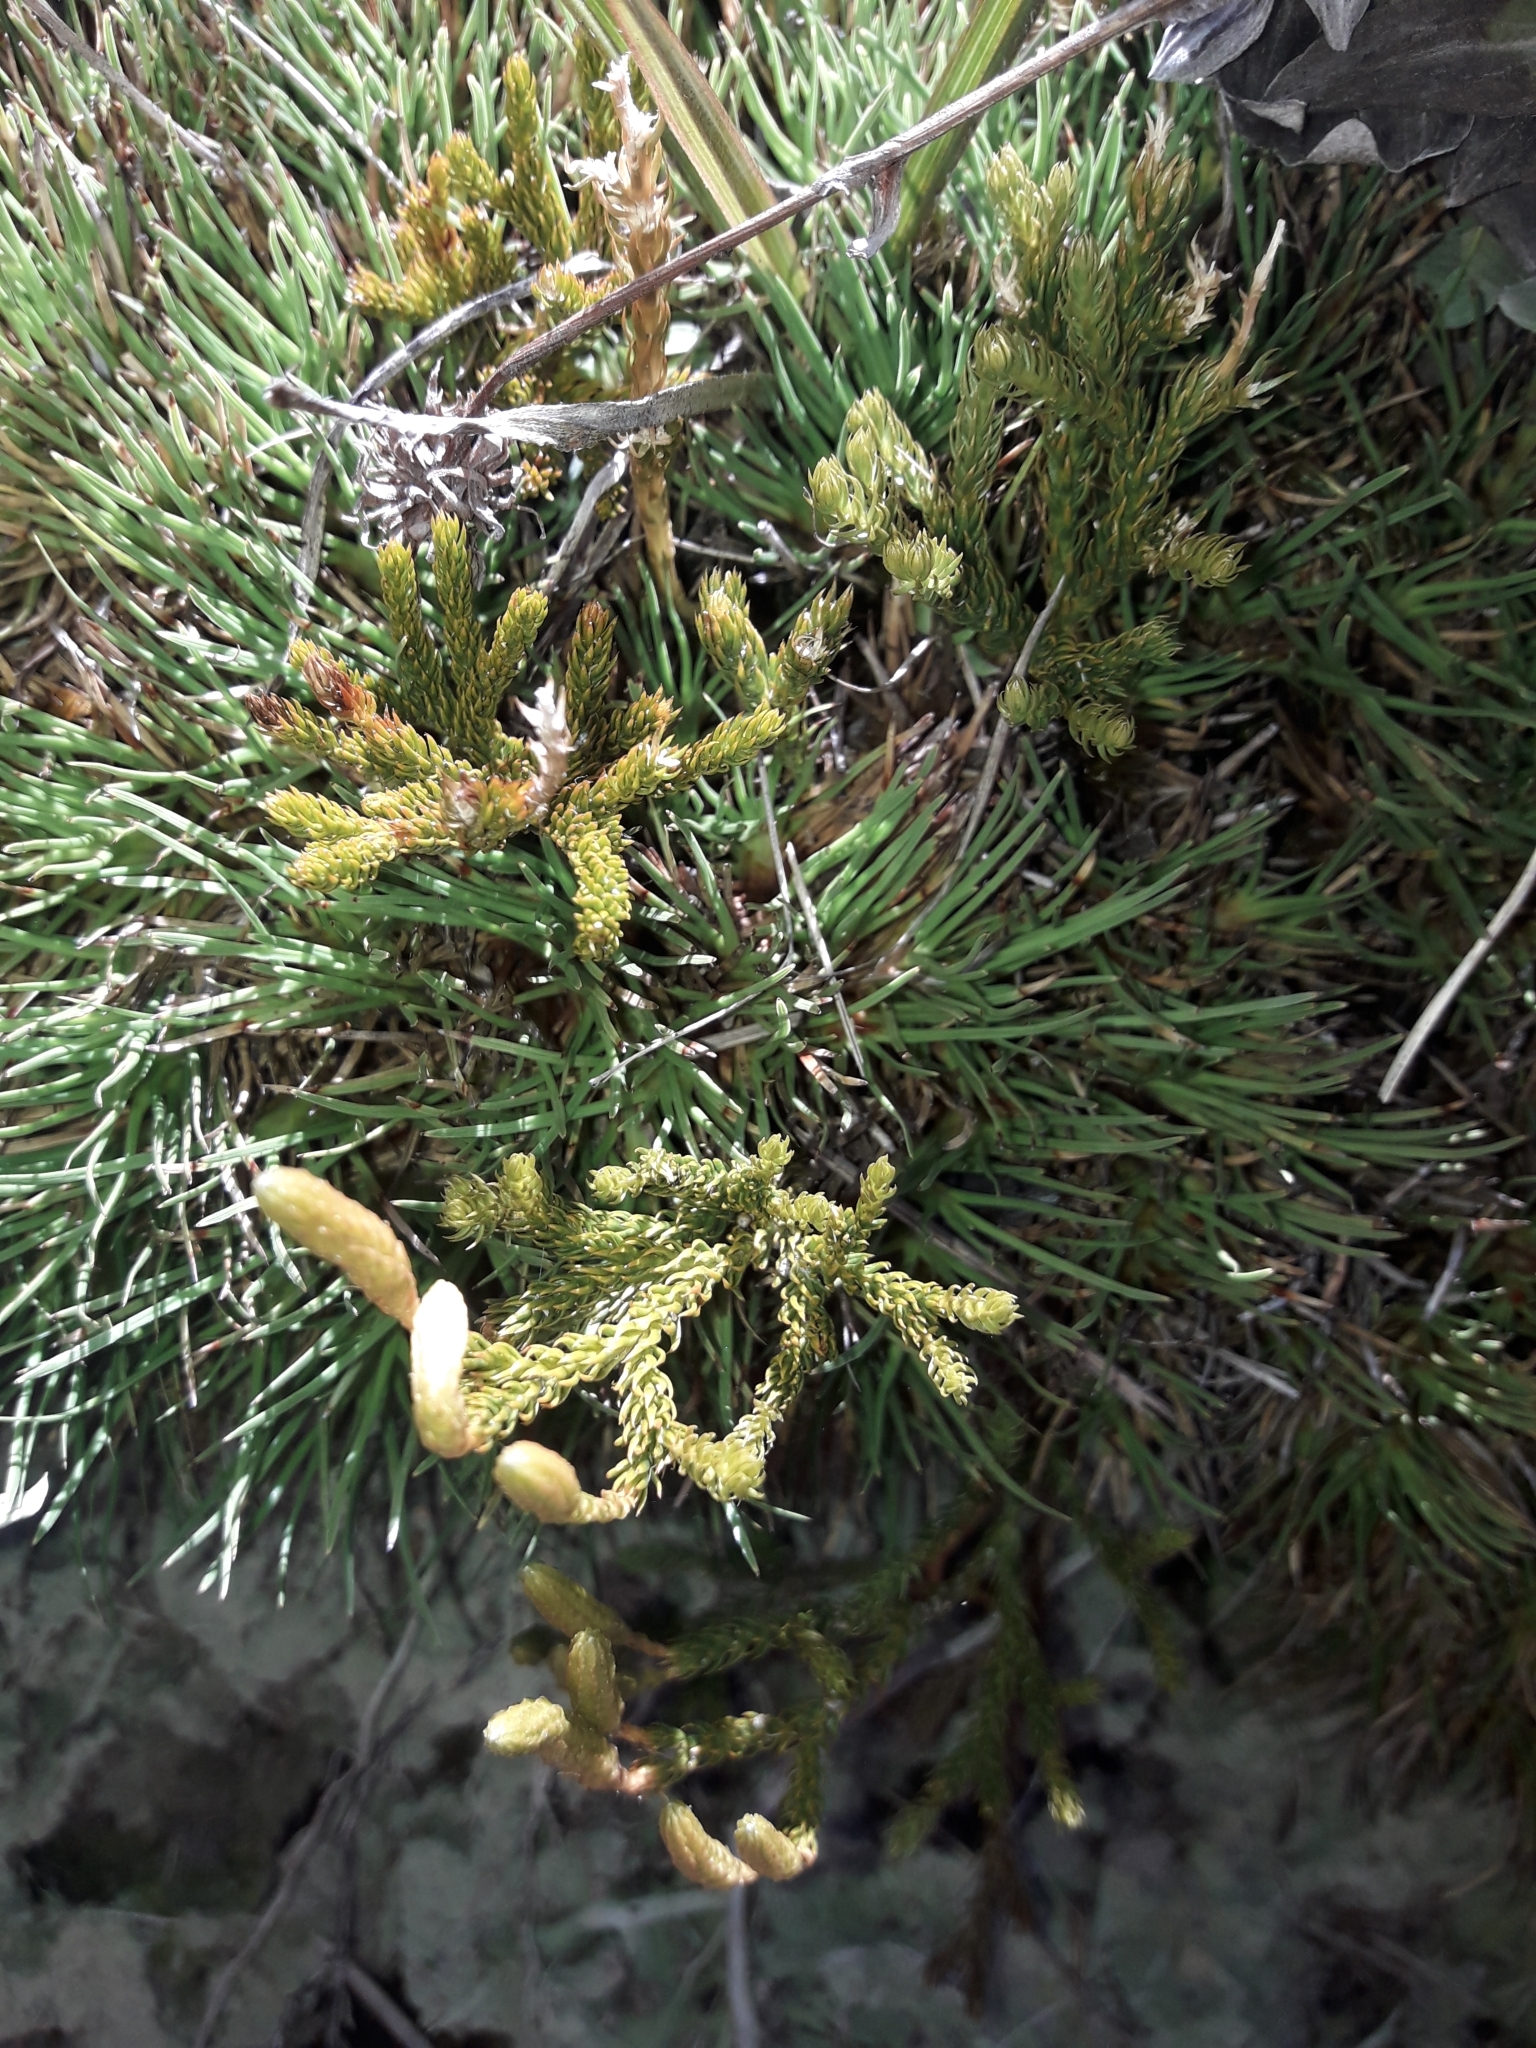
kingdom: Plantae
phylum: Tracheophyta
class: Lycopodiopsida
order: Lycopodiales
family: Lycopodiaceae
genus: Austrolycopodium
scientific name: Austrolycopodium fastigiatum
